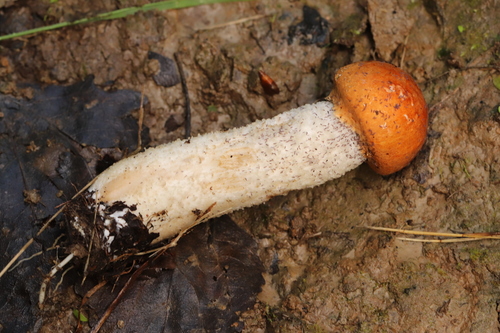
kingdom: Fungi
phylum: Basidiomycota
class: Agaricomycetes
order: Boletales
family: Boletaceae
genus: Leccinum
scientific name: Leccinum albostipitatum
